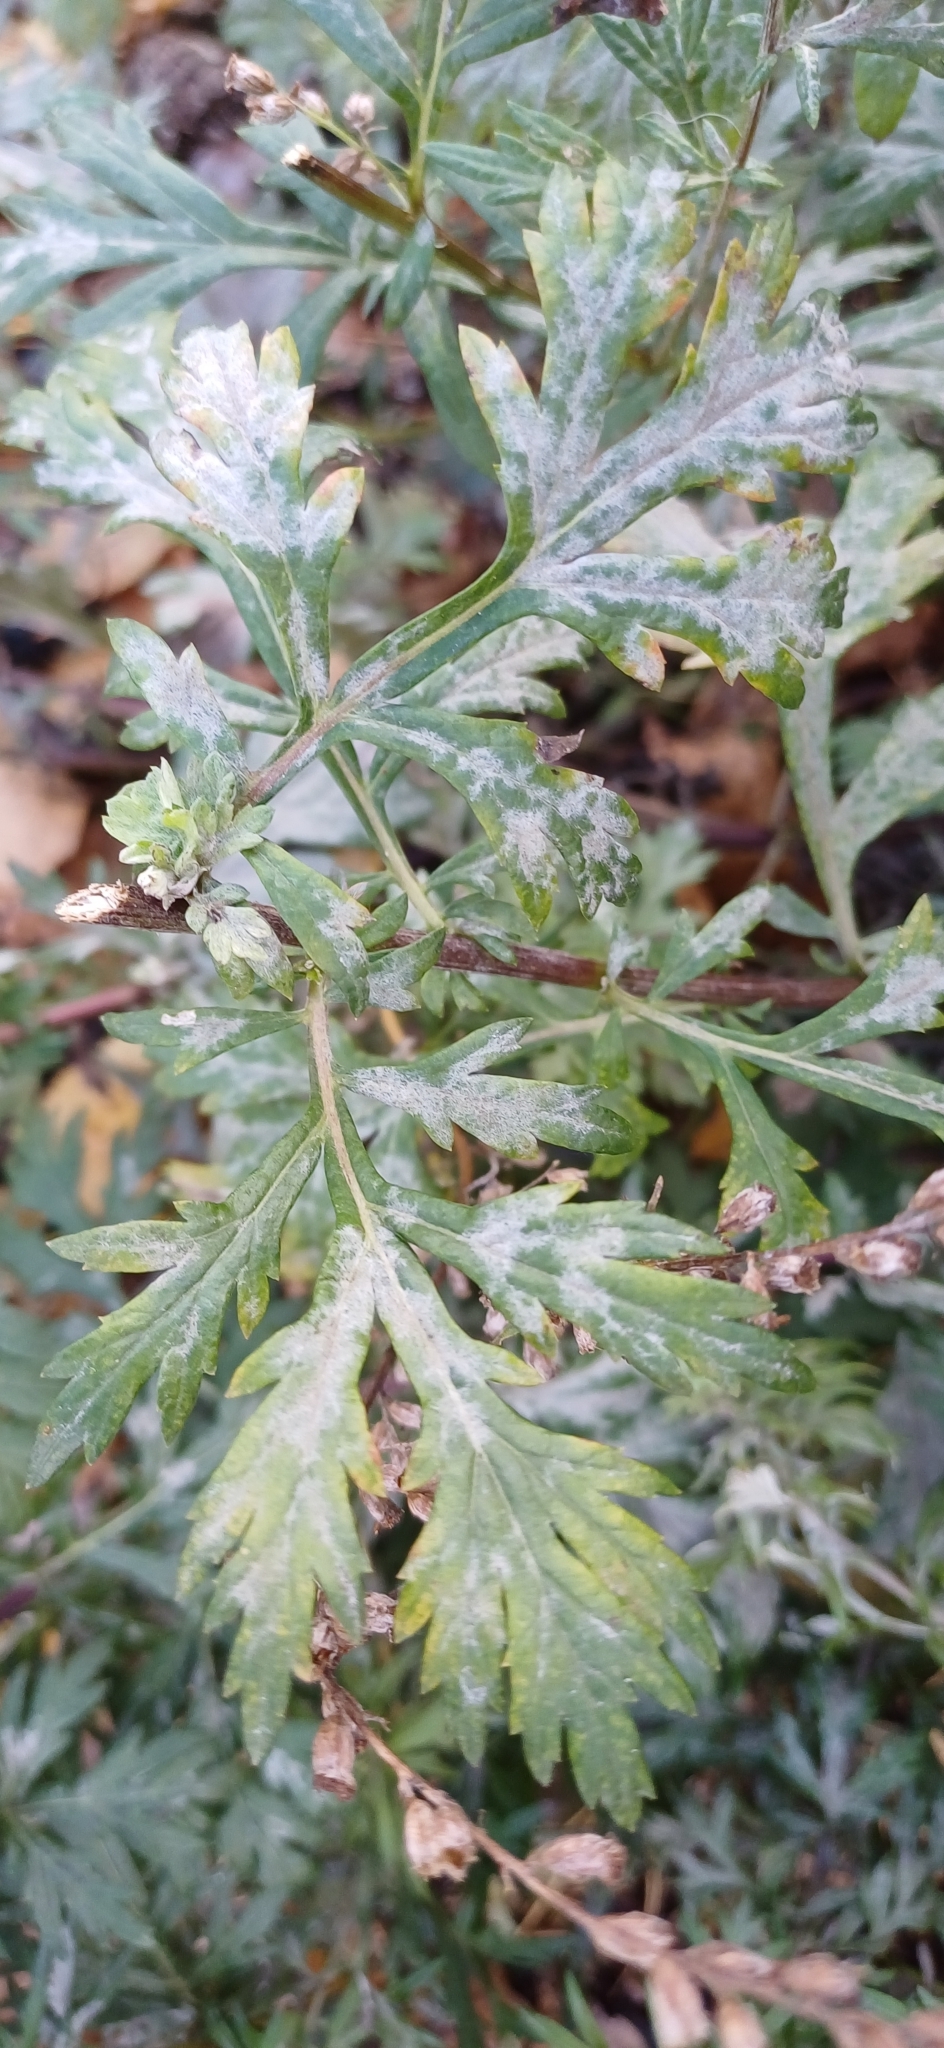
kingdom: Fungi
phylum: Ascomycota
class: Leotiomycetes
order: Helotiales
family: Erysiphaceae
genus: Golovinomyces
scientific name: Golovinomyces artemisiae
